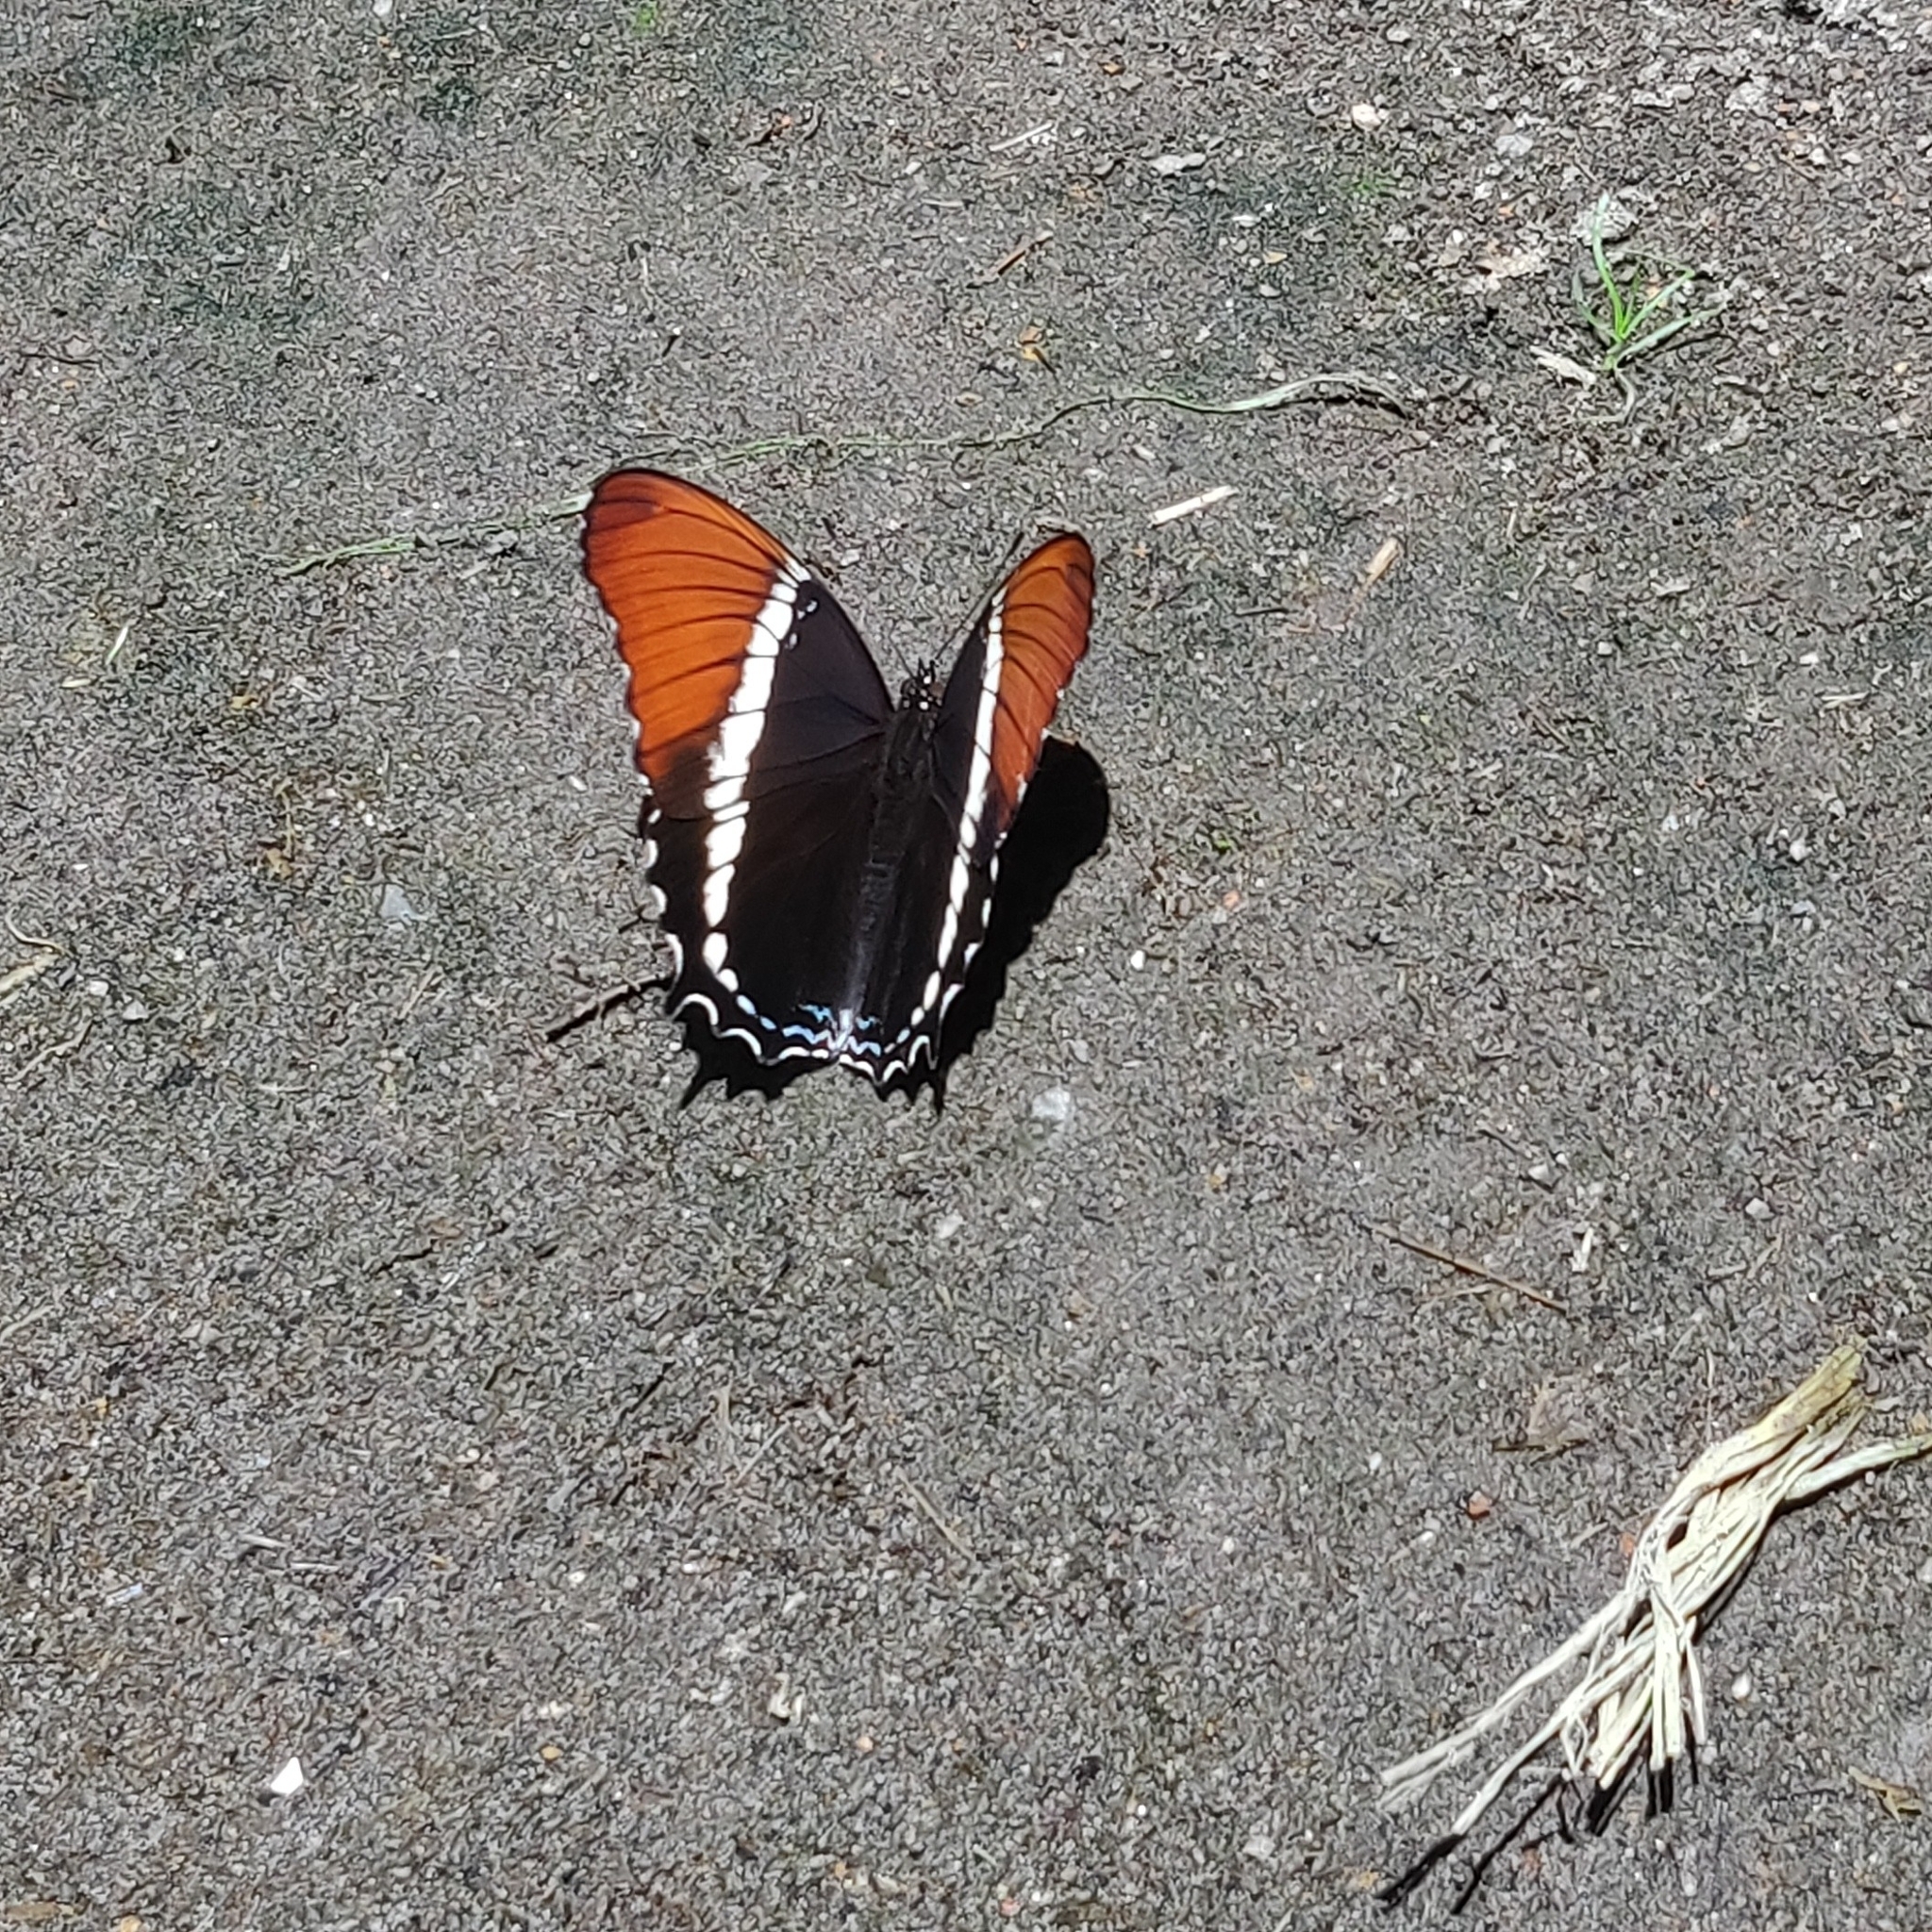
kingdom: Animalia
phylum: Arthropoda
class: Insecta
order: Lepidoptera
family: Nymphalidae
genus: Siproeta
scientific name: Siproeta epaphus
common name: Rusty-tipped page
